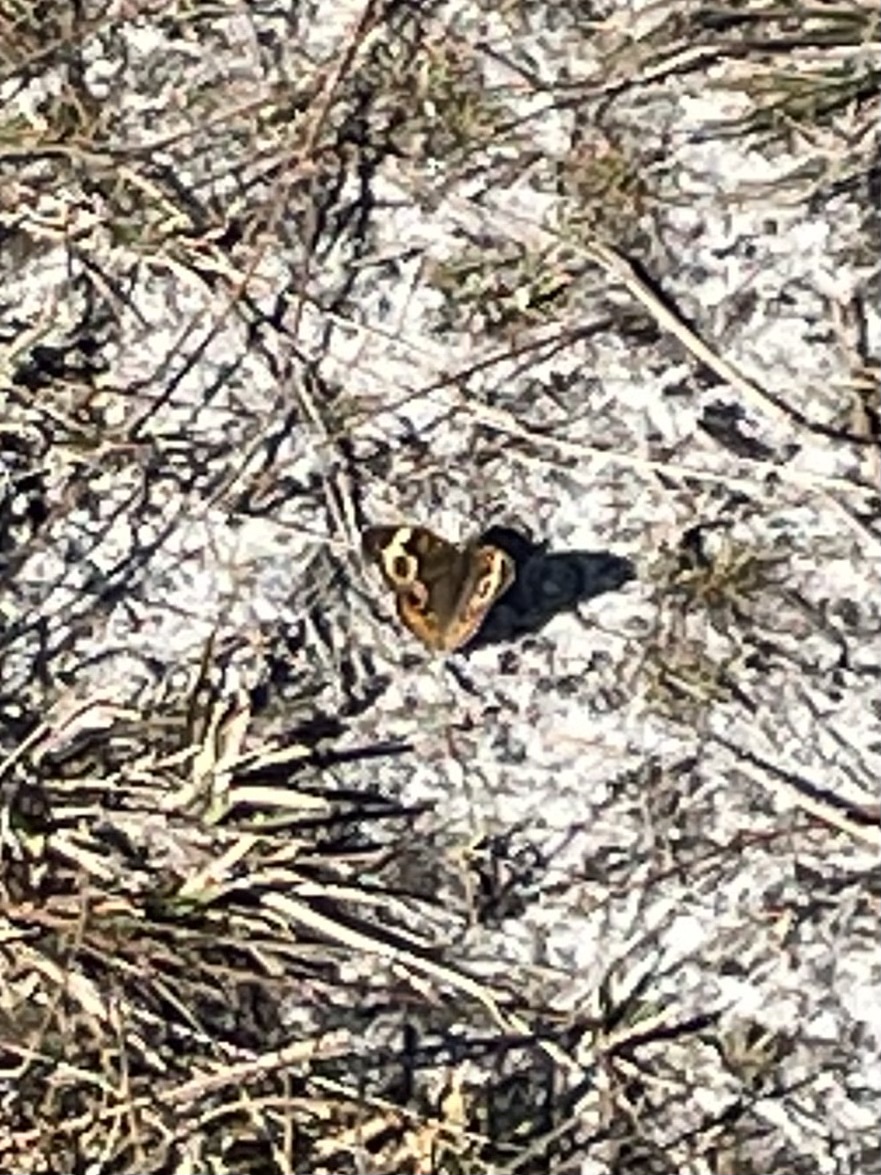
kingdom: Animalia
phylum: Arthropoda
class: Insecta
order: Lepidoptera
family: Nymphalidae
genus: Junonia
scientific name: Junonia coenia
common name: Common buckeye
